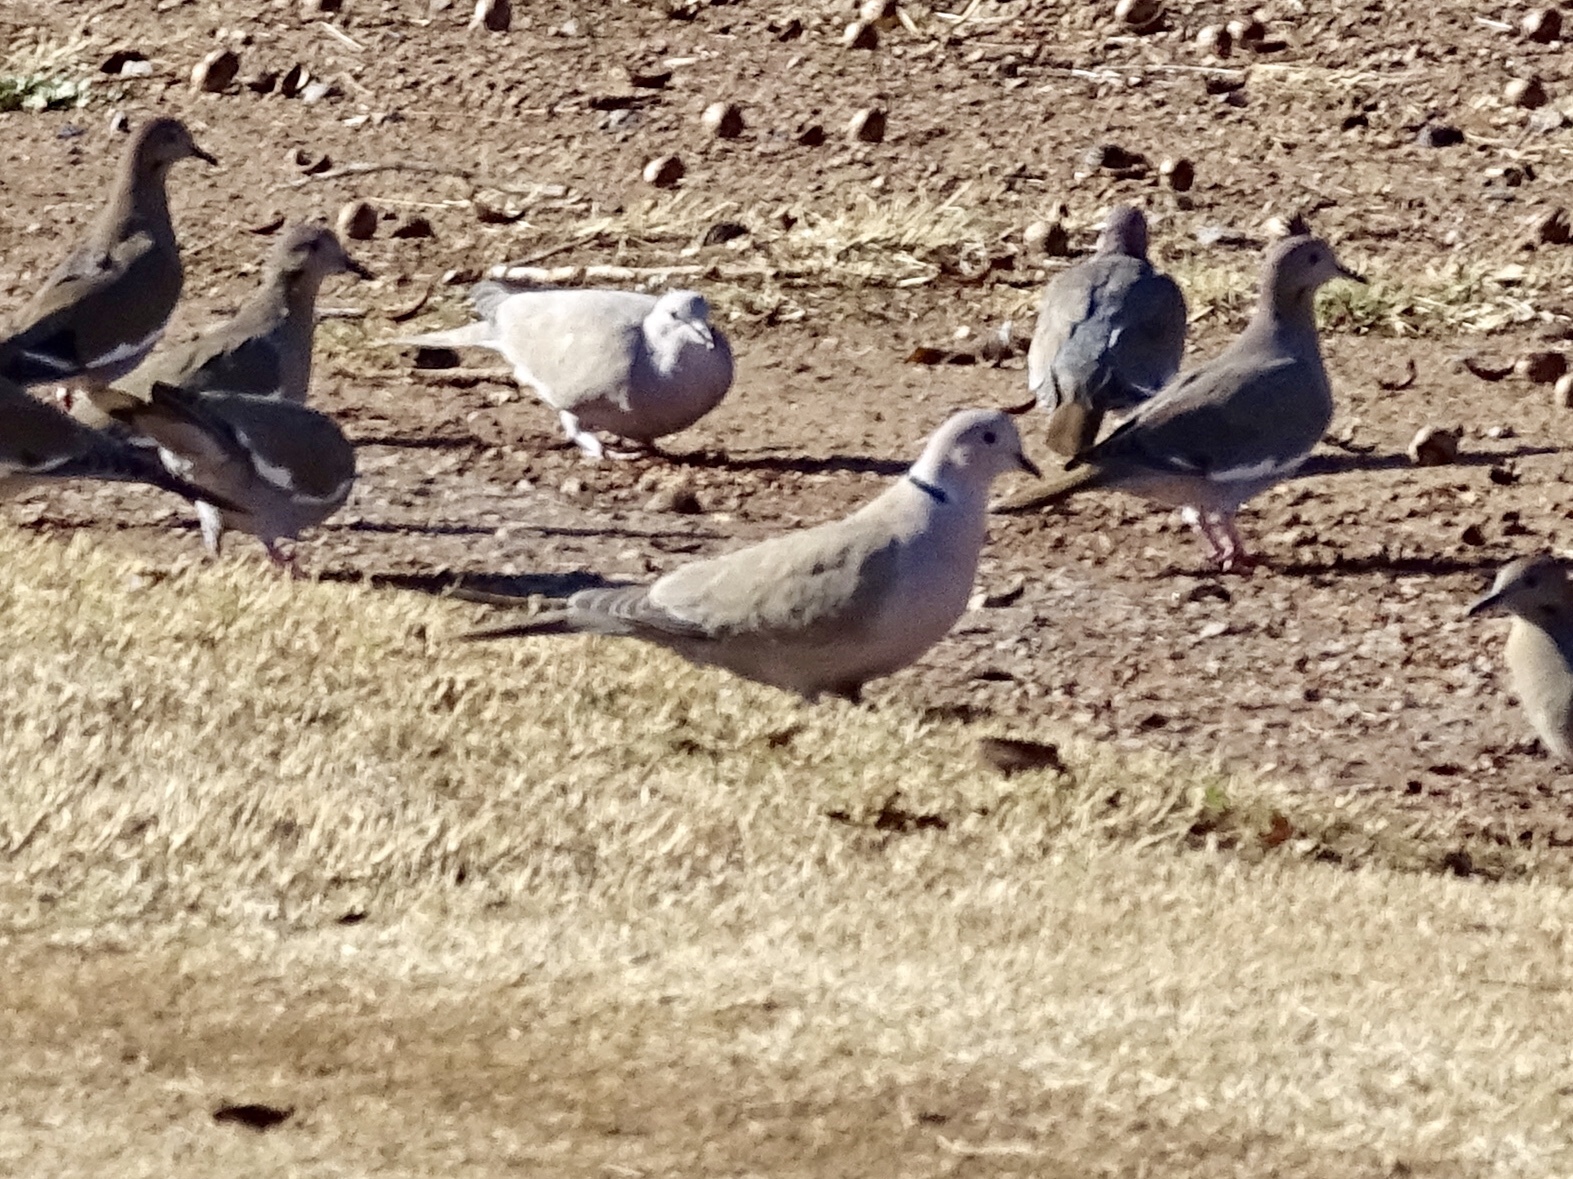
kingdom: Animalia
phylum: Chordata
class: Aves
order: Columbiformes
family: Columbidae
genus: Streptopelia
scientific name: Streptopelia decaocto
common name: Eurasian collared dove
